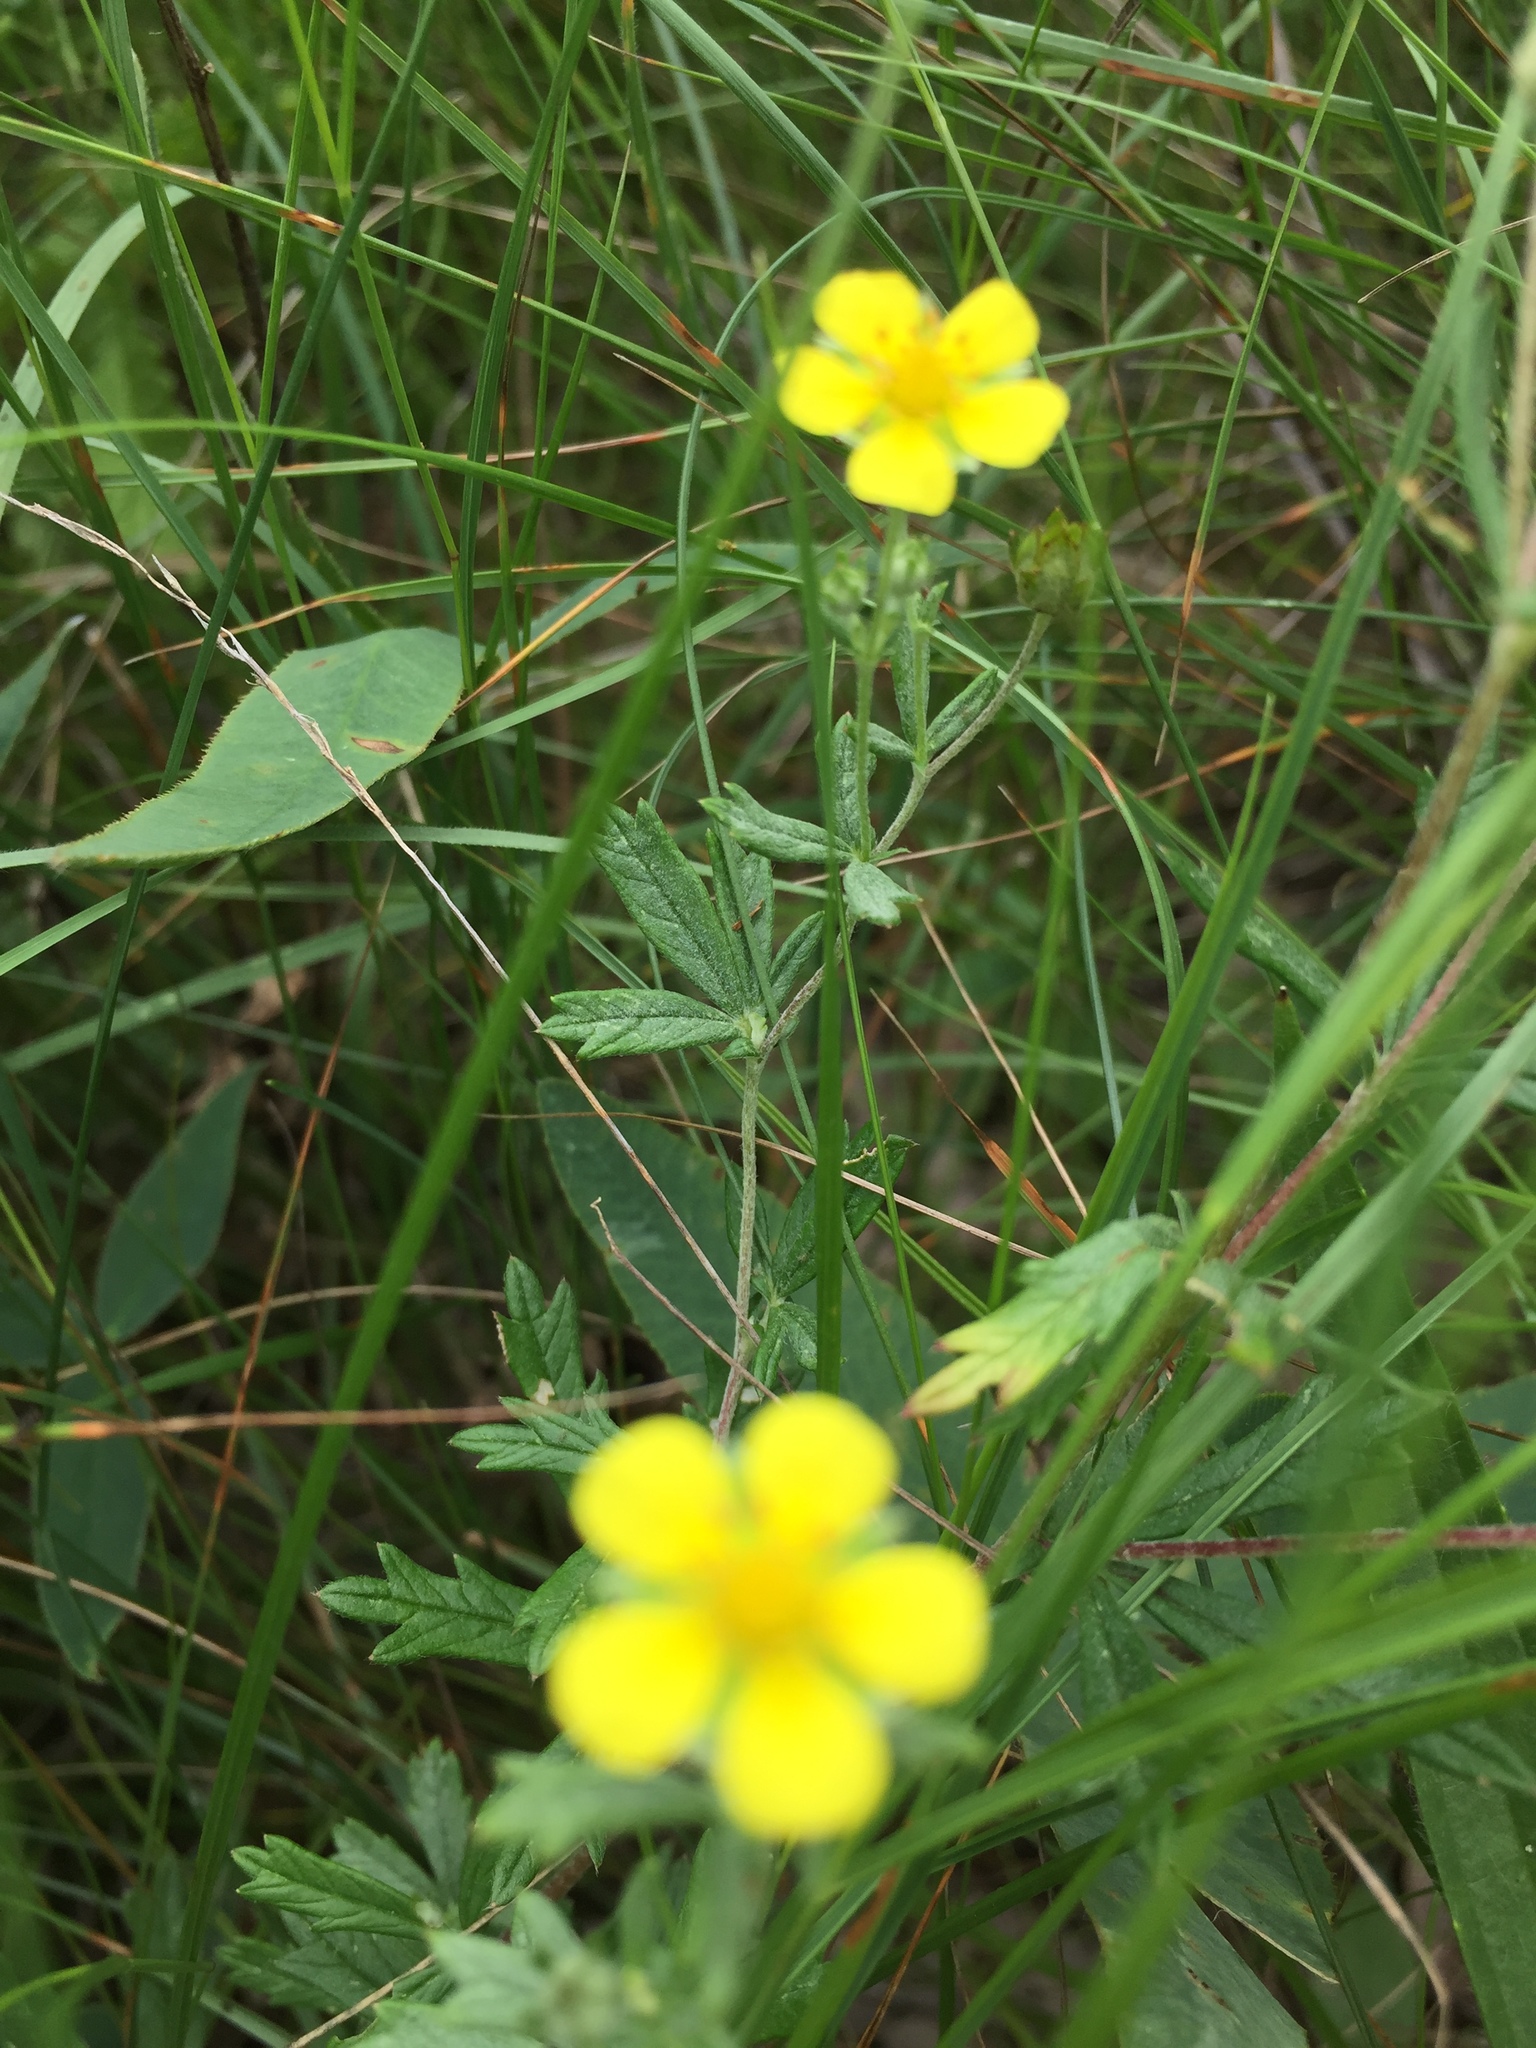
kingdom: Plantae
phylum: Tracheophyta
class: Magnoliopsida
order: Rosales
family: Rosaceae
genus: Potentilla
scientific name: Potentilla argentea
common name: Hoary cinquefoil
